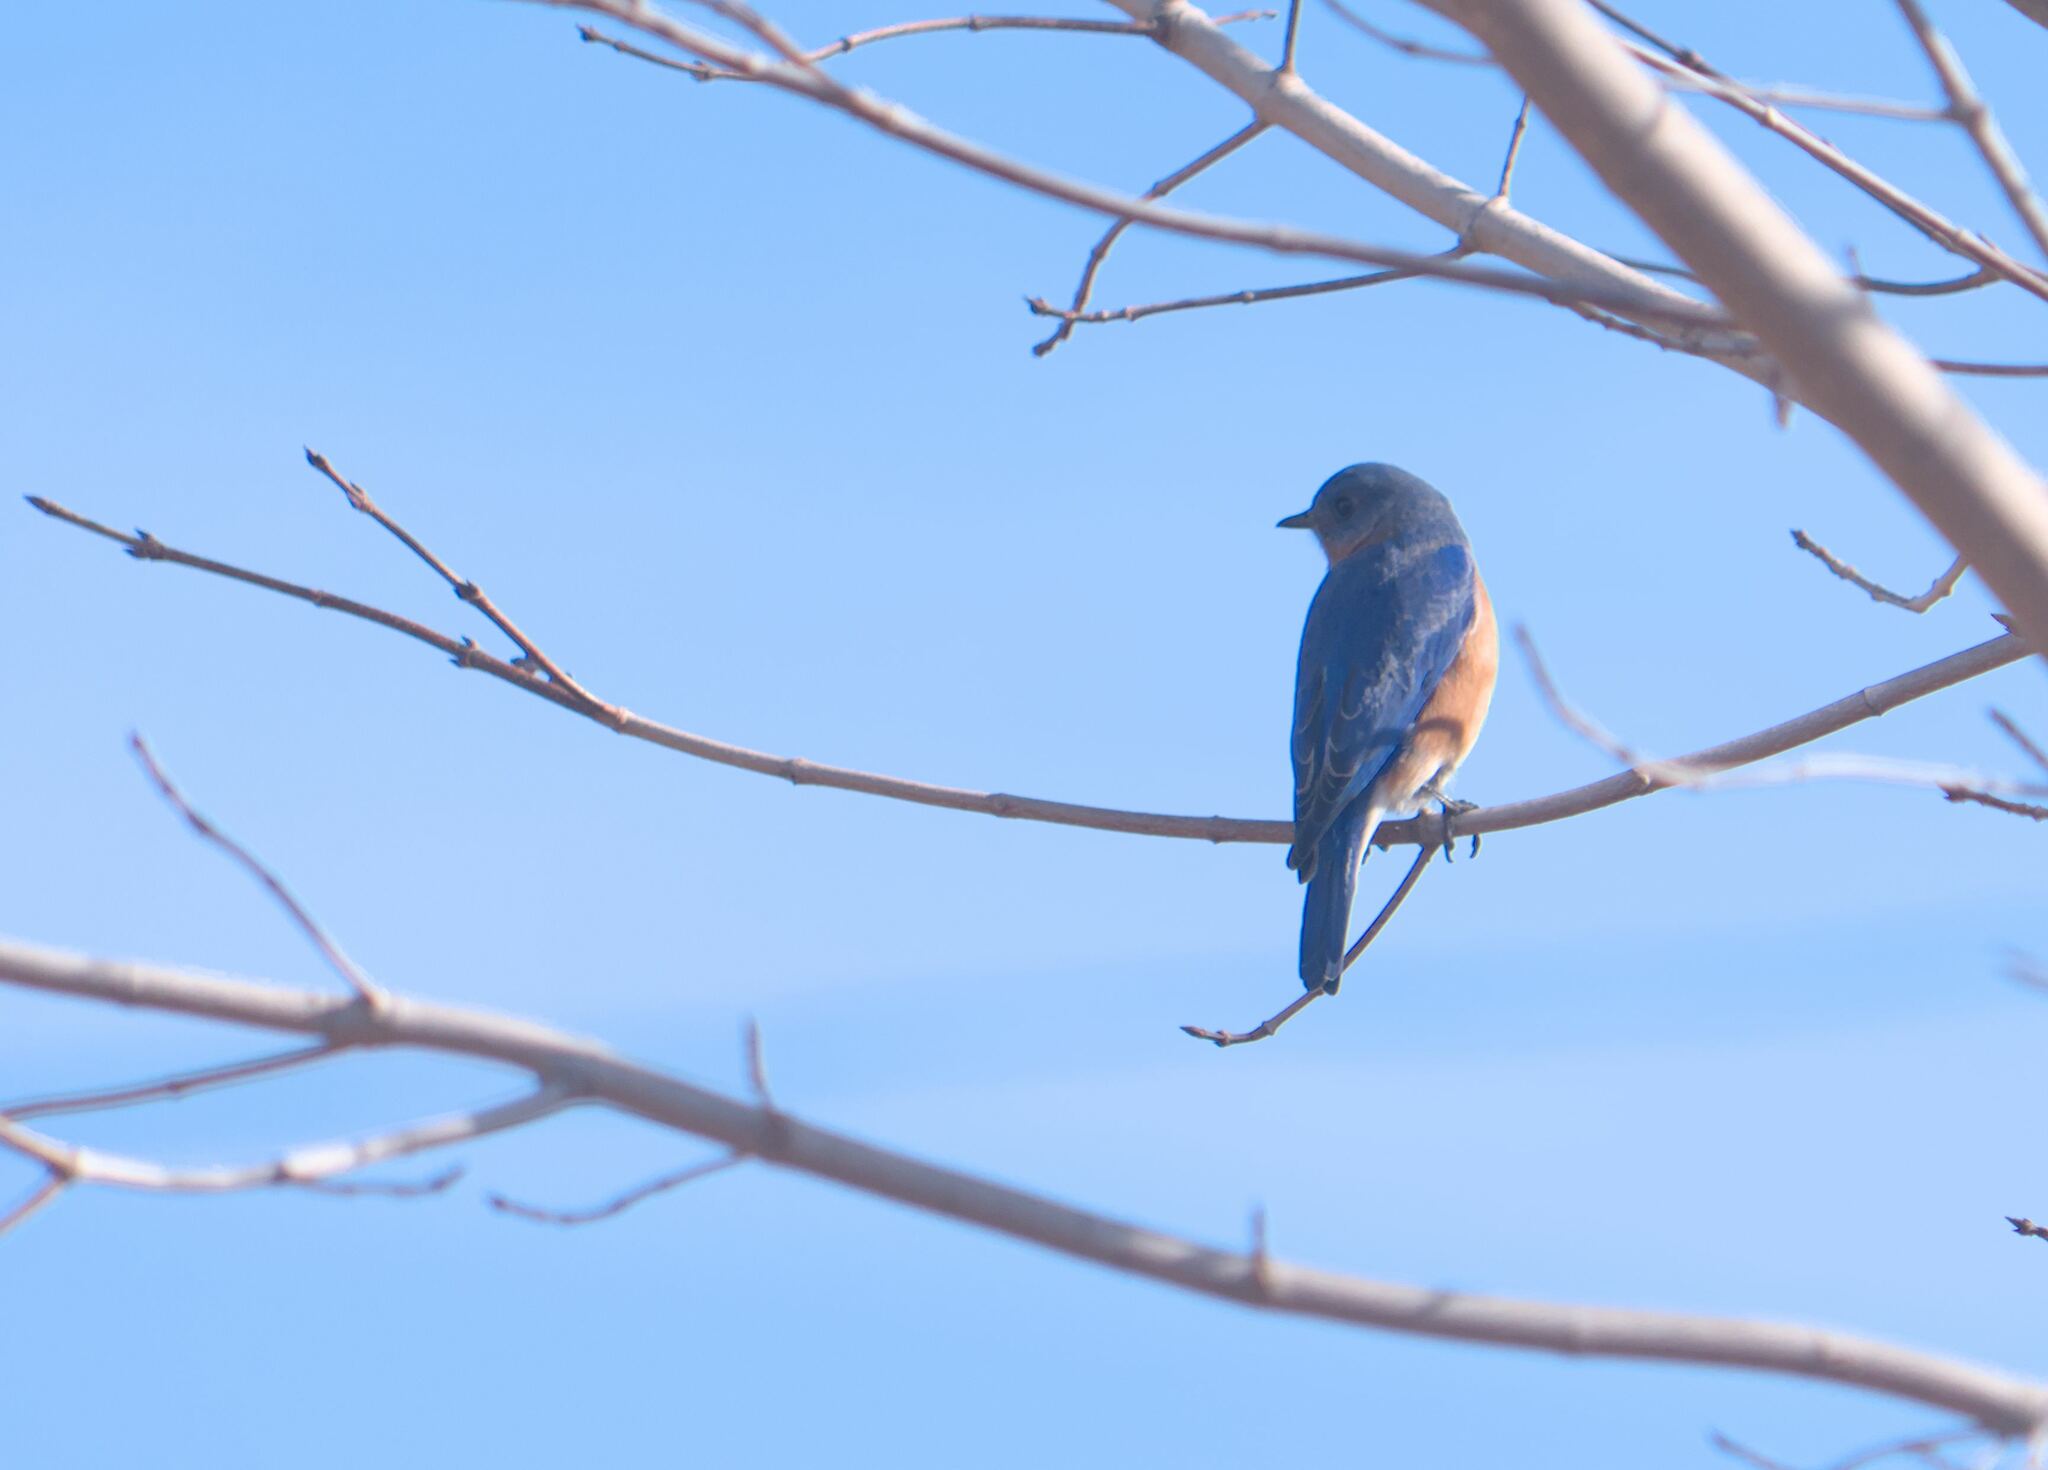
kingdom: Animalia
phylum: Chordata
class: Aves
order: Passeriformes
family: Turdidae
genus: Sialia
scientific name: Sialia sialis
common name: Eastern bluebird
